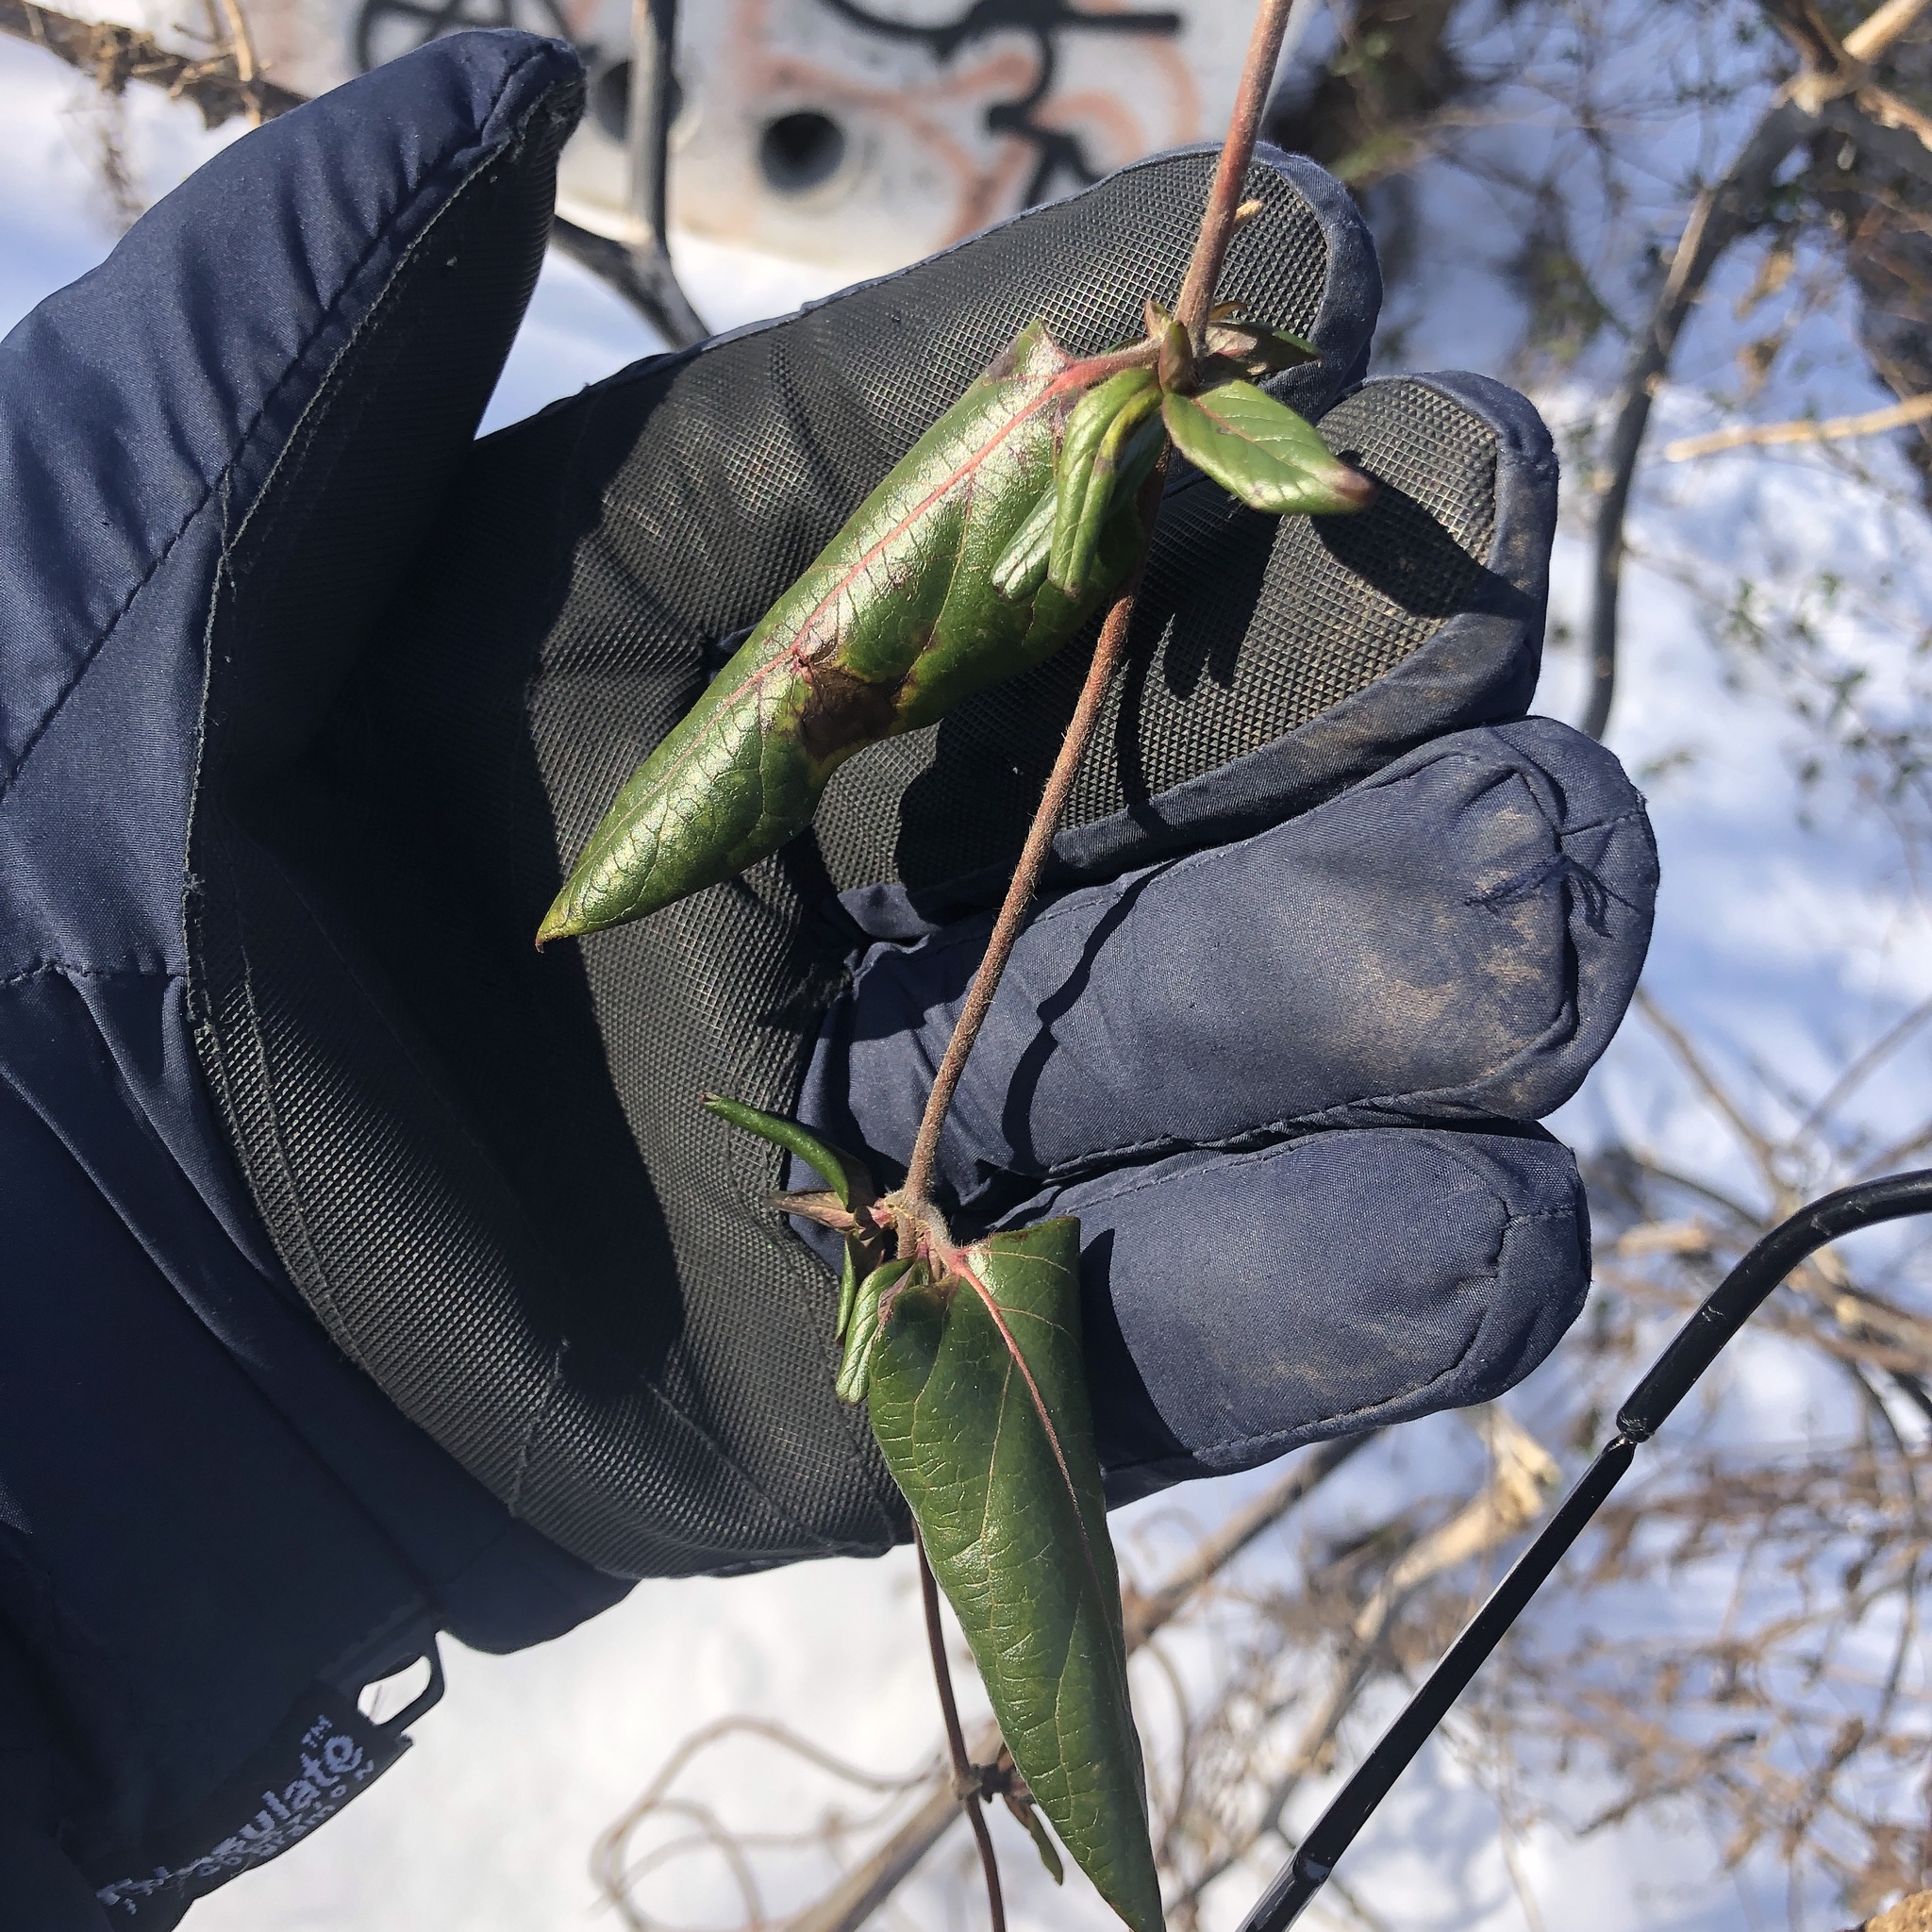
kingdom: Plantae
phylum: Tracheophyta
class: Magnoliopsida
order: Dipsacales
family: Caprifoliaceae
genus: Lonicera
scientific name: Lonicera japonica
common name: Japanese honeysuckle
